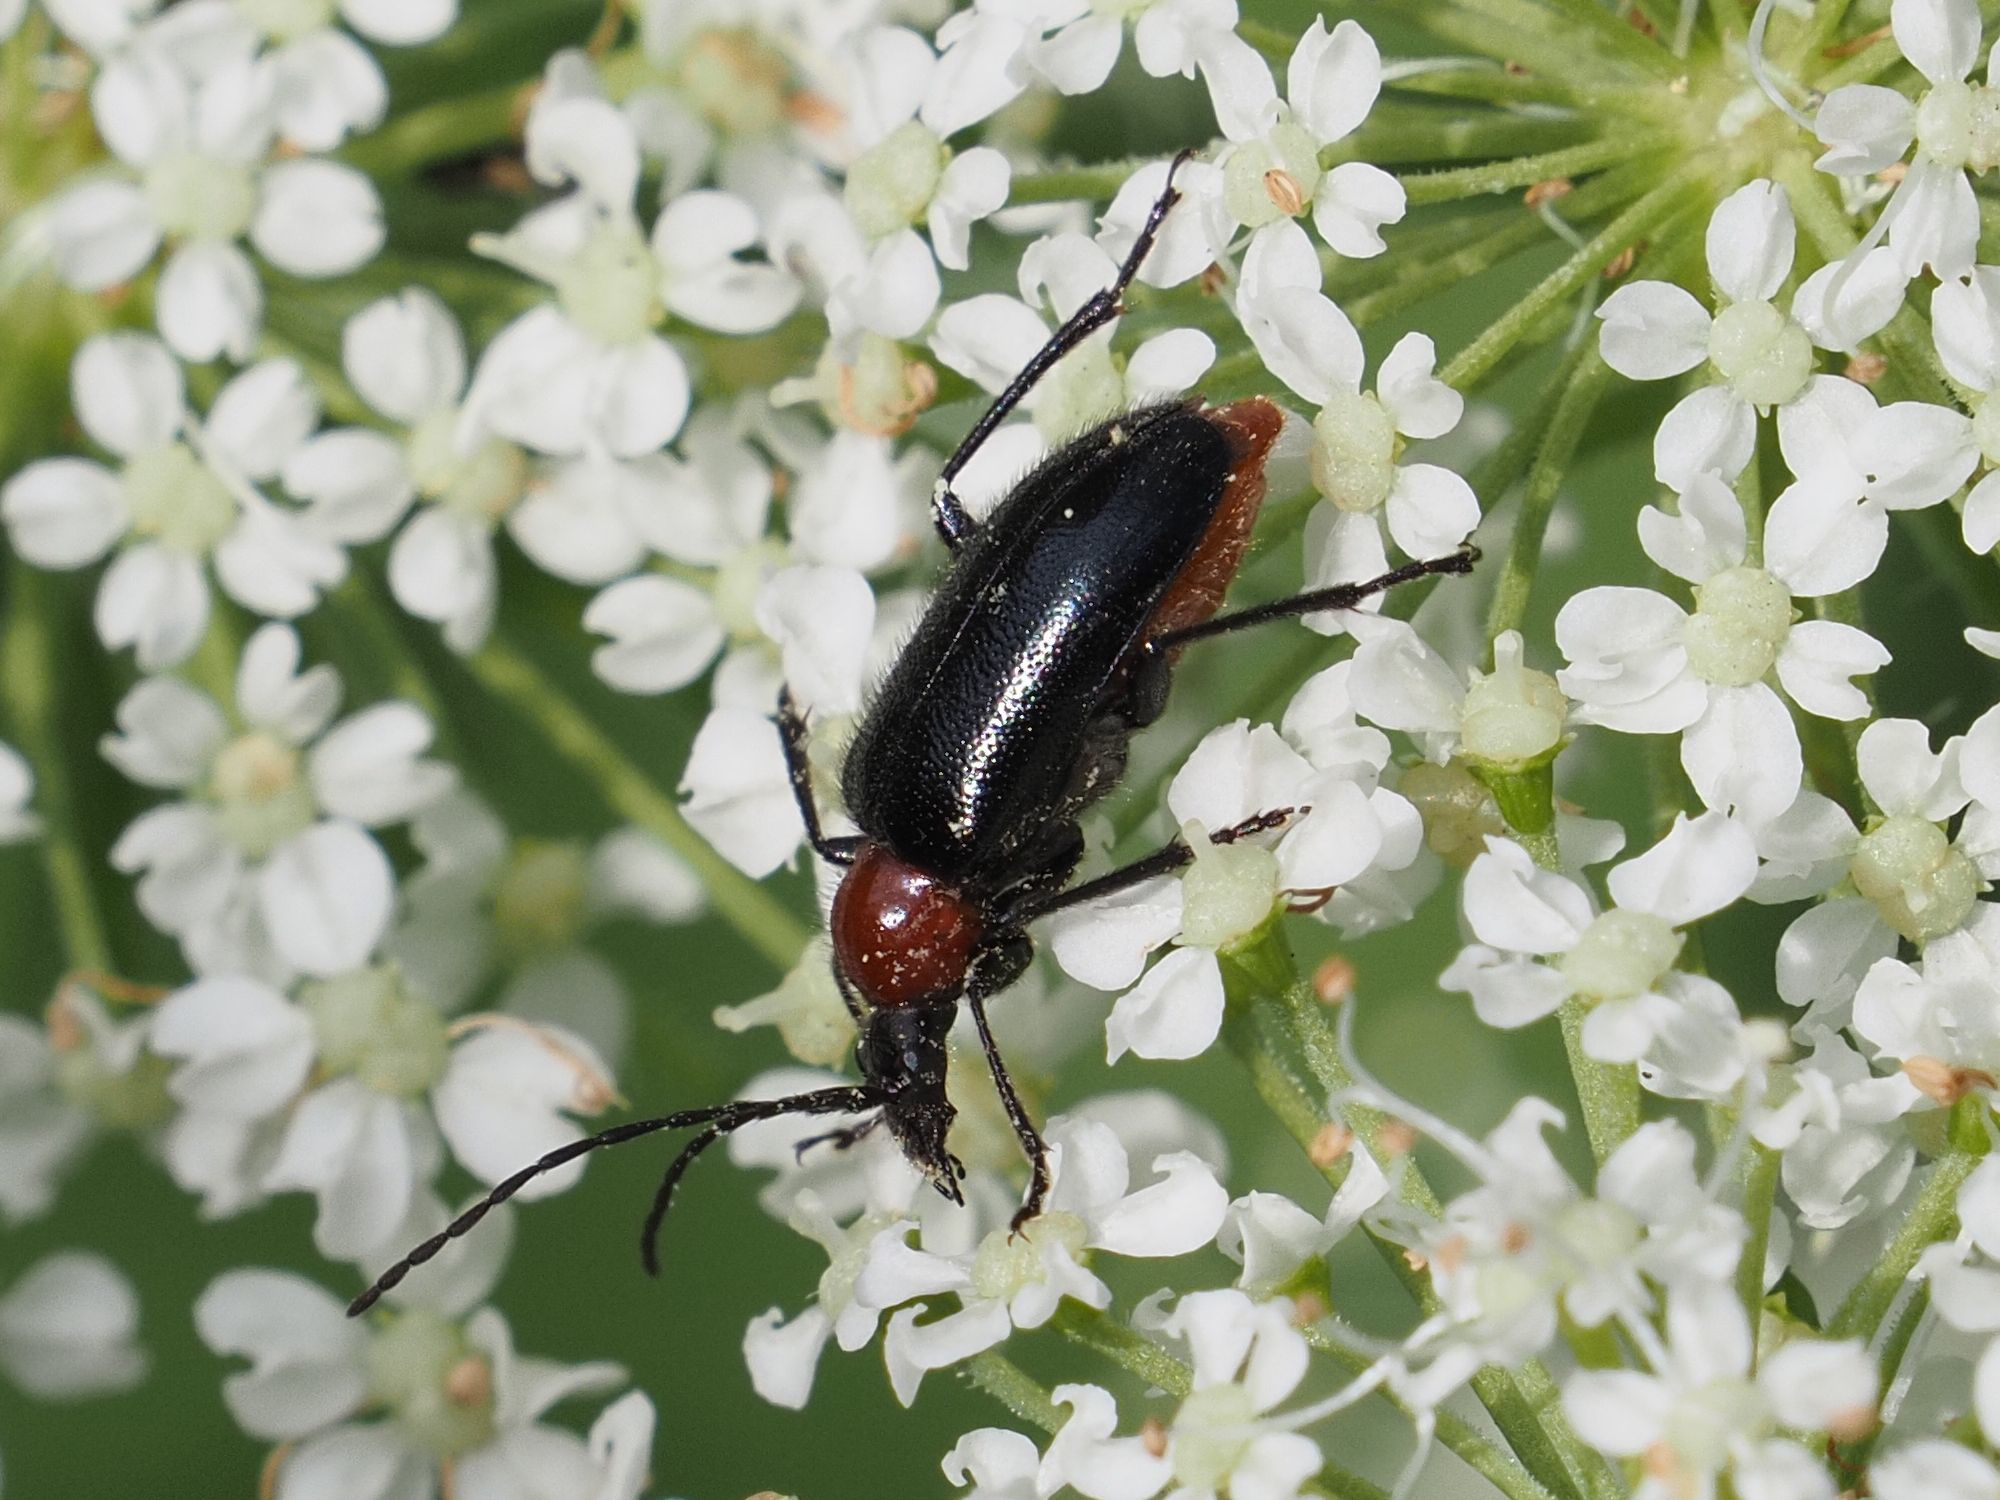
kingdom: Animalia
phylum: Arthropoda
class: Insecta
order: Coleoptera
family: Cerambycidae
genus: Gaurotes
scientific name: Gaurotes virginea
